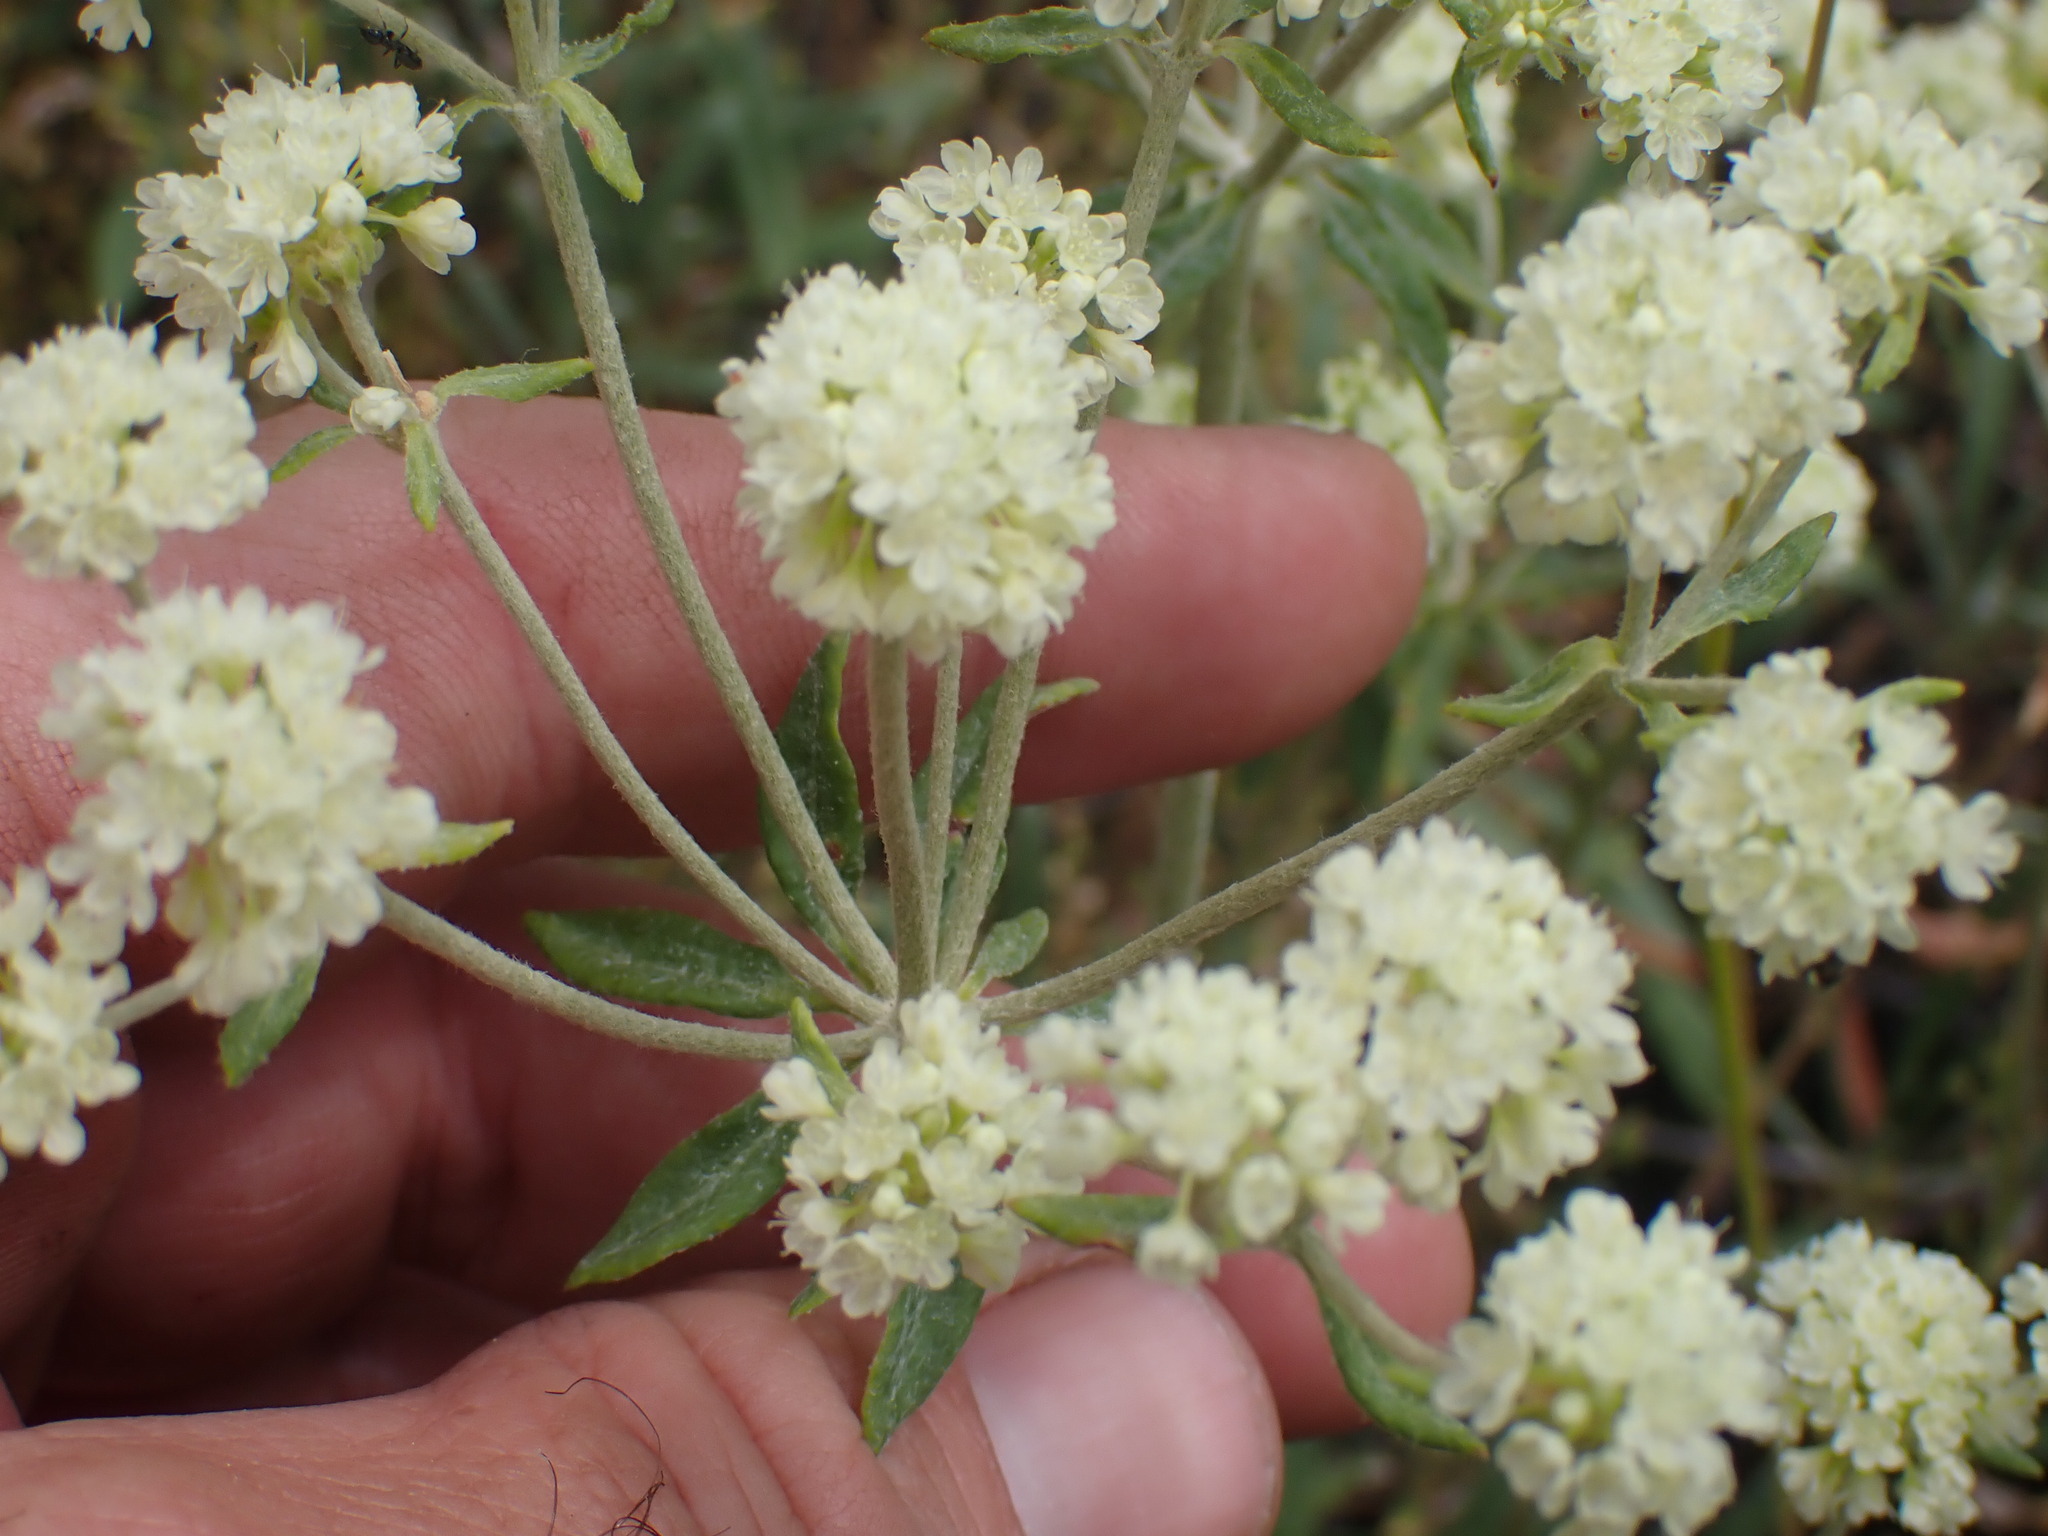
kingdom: Plantae
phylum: Tracheophyta
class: Magnoliopsida
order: Caryophyllales
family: Polygonaceae
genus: Eriogonum
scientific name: Eriogonum heracleoides
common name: Wyeth's buckwheat
